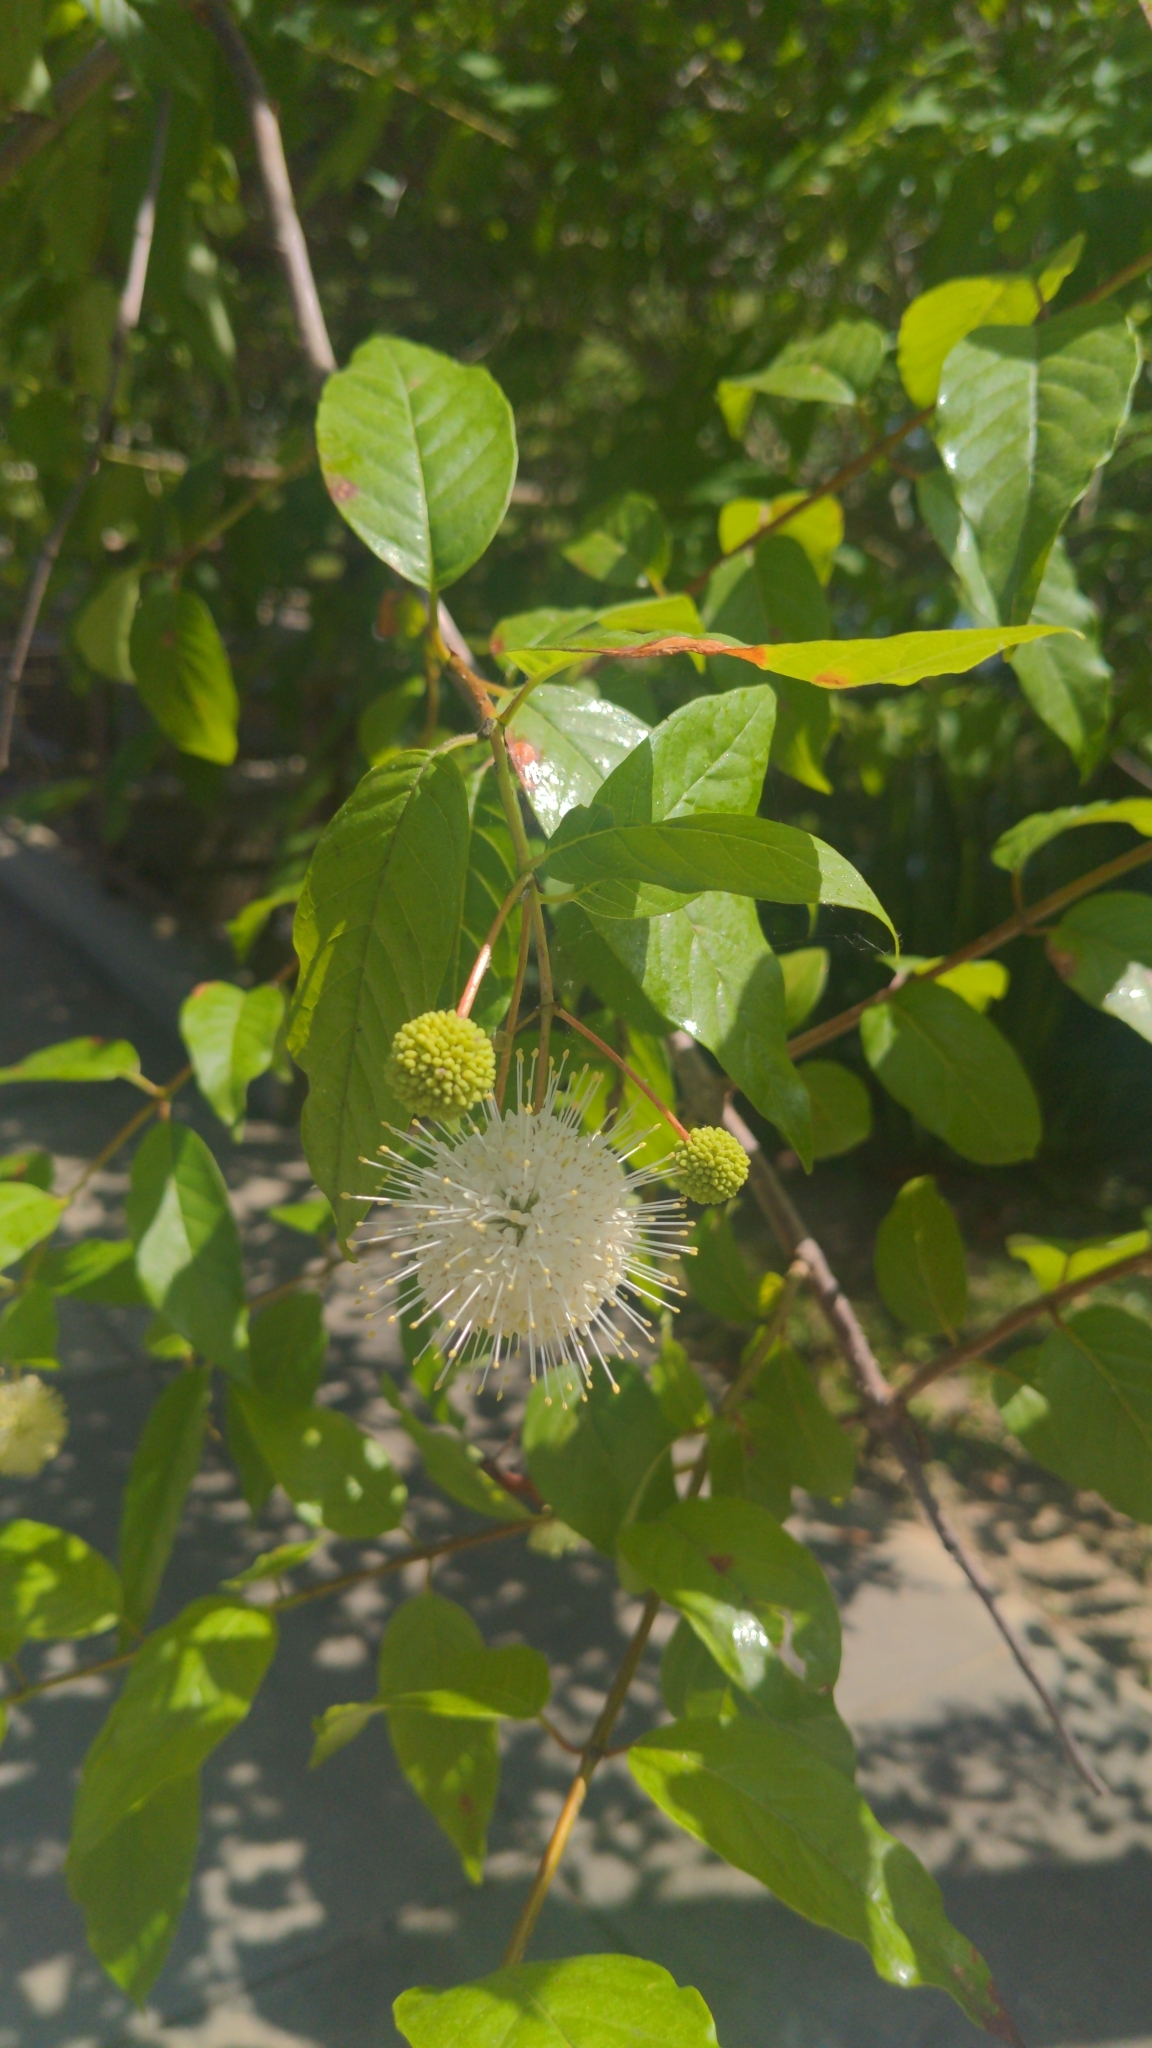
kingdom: Plantae
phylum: Tracheophyta
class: Magnoliopsida
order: Gentianales
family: Rubiaceae
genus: Cephalanthus
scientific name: Cephalanthus occidentalis
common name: Button-willow
